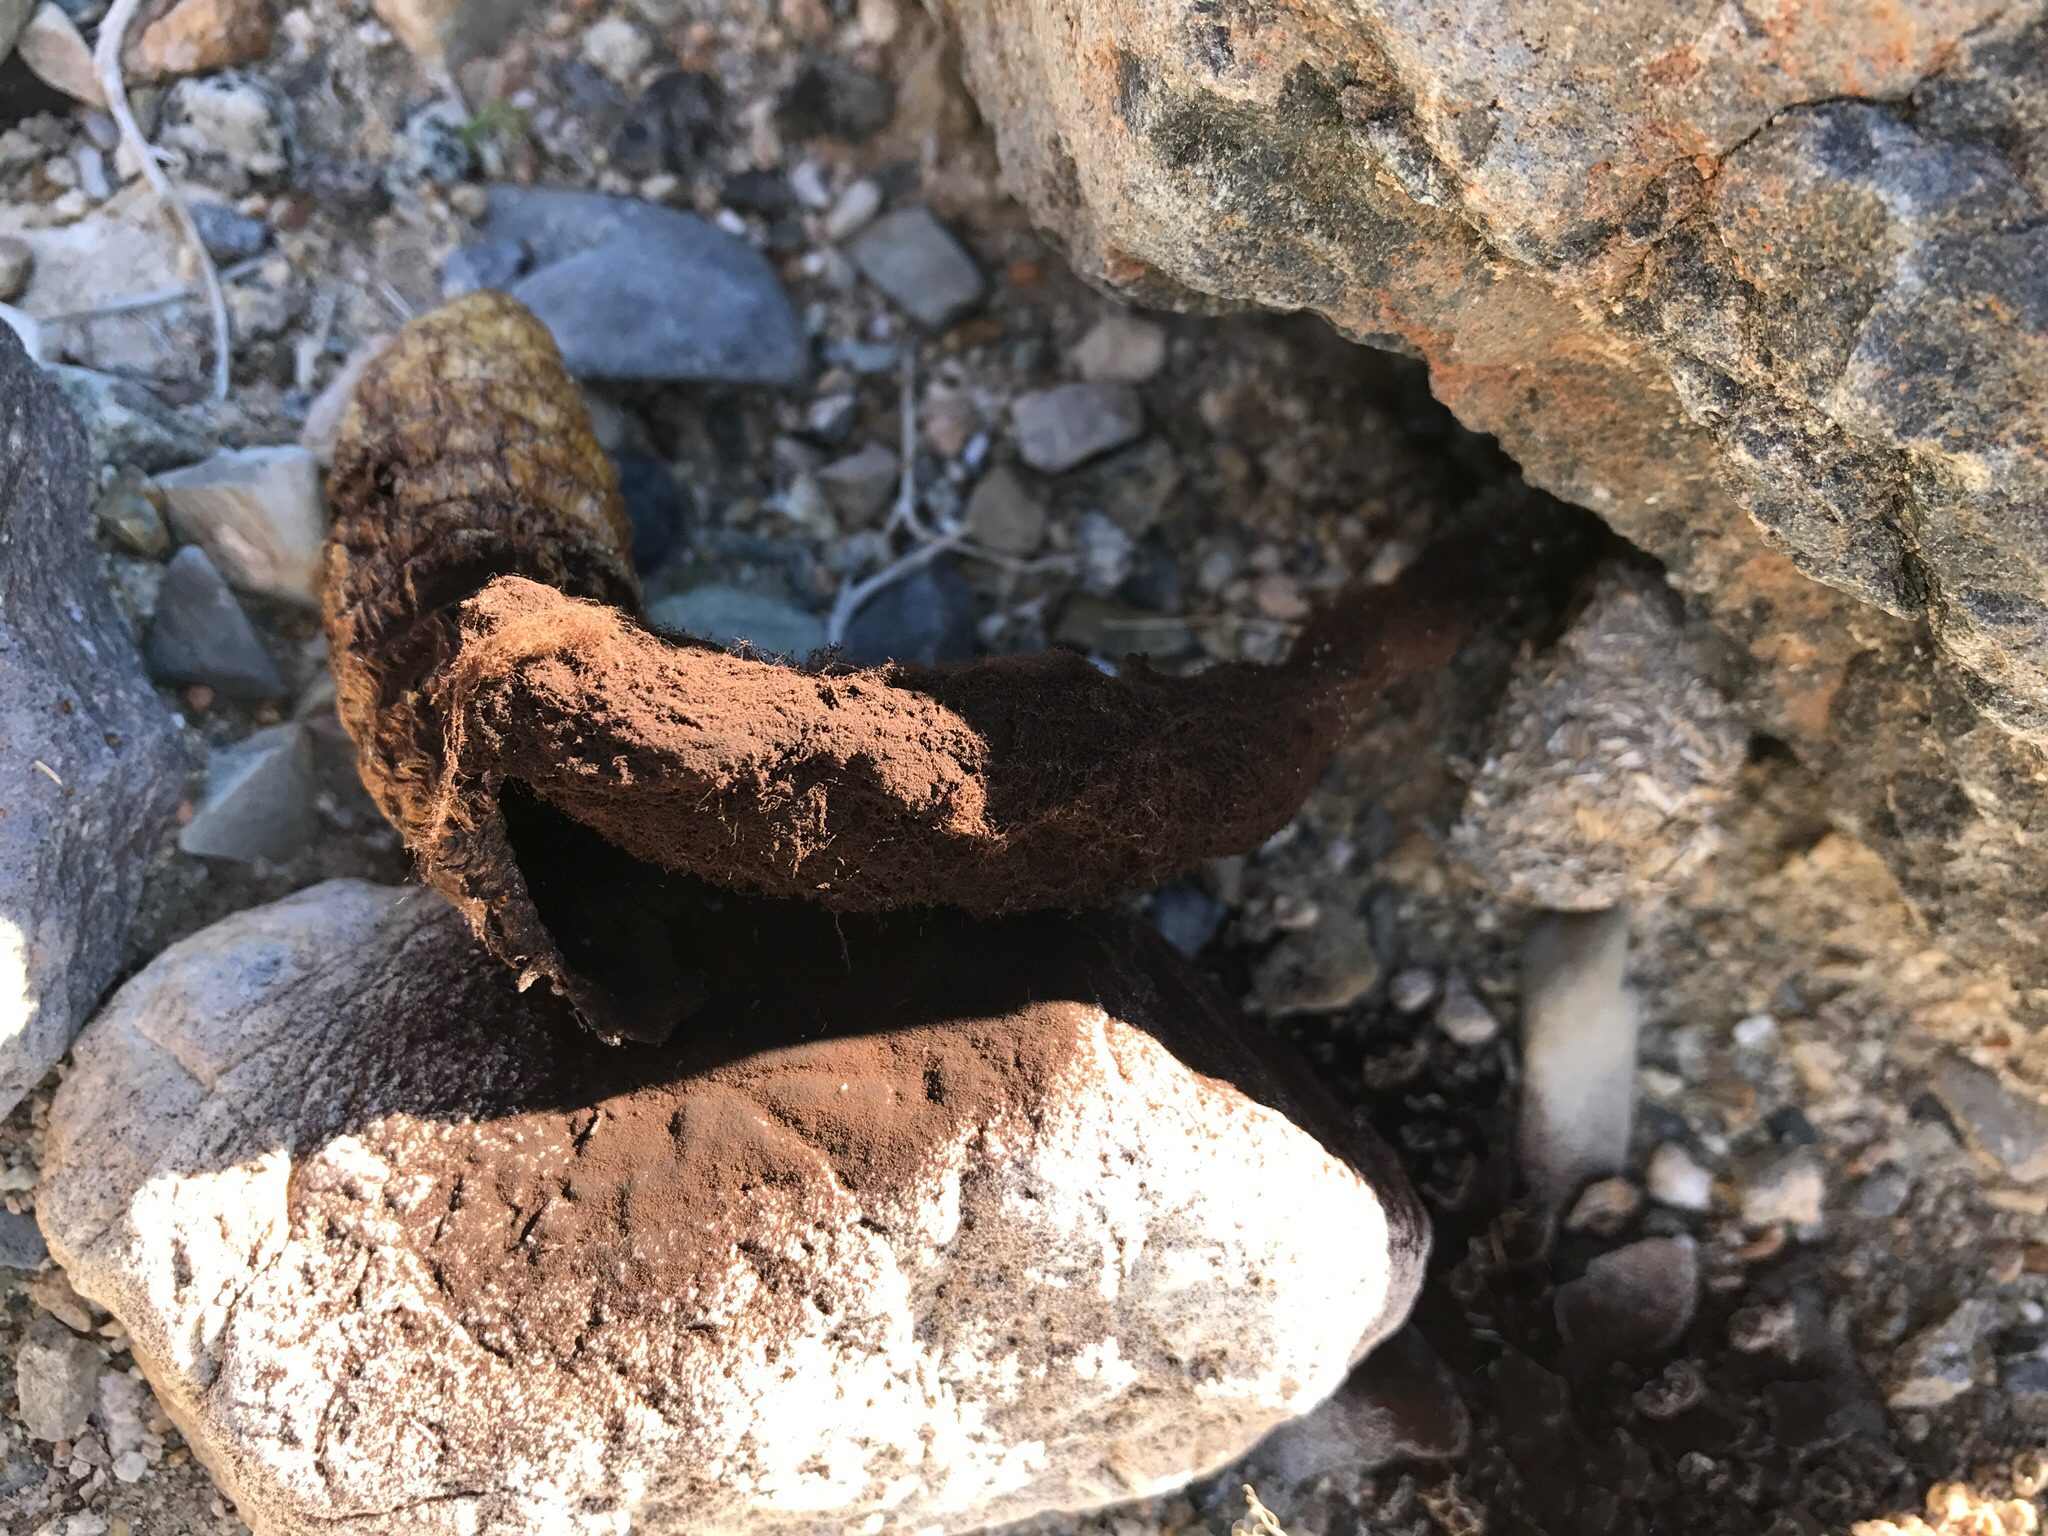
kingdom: Fungi
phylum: Basidiomycota
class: Agaricomycetes
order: Agaricales
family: Agaricaceae
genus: Podaxis
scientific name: Podaxis pistillaris
